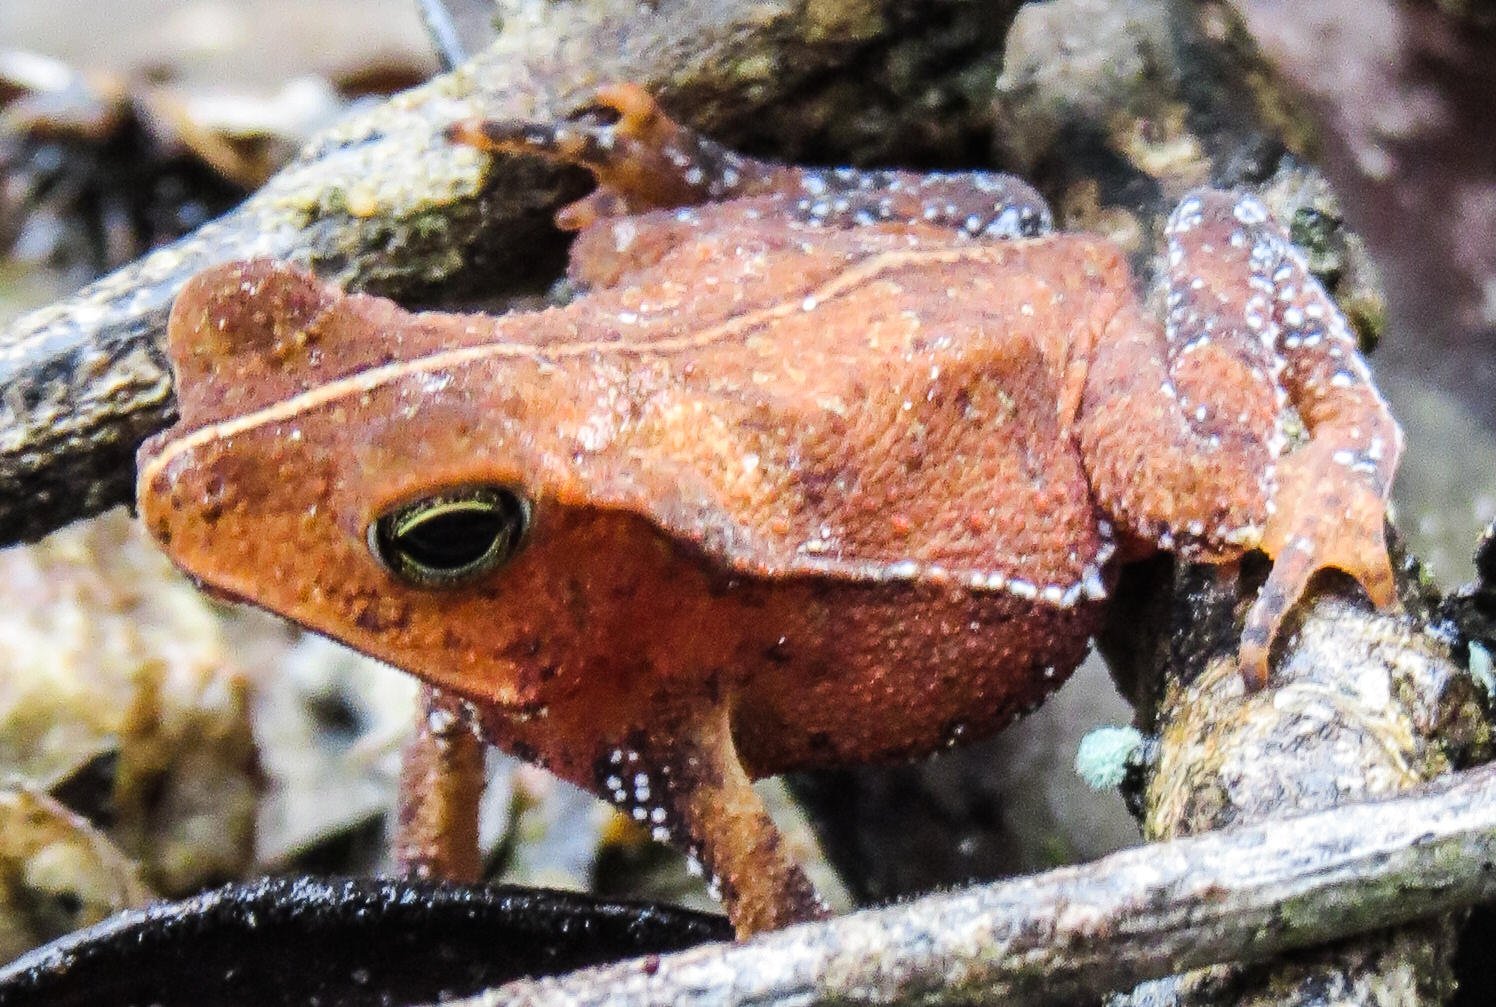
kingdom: Animalia
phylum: Chordata
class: Amphibia
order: Anura
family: Bufonidae
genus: Rhinella
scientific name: Rhinella margaritifera
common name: Mitred toad
